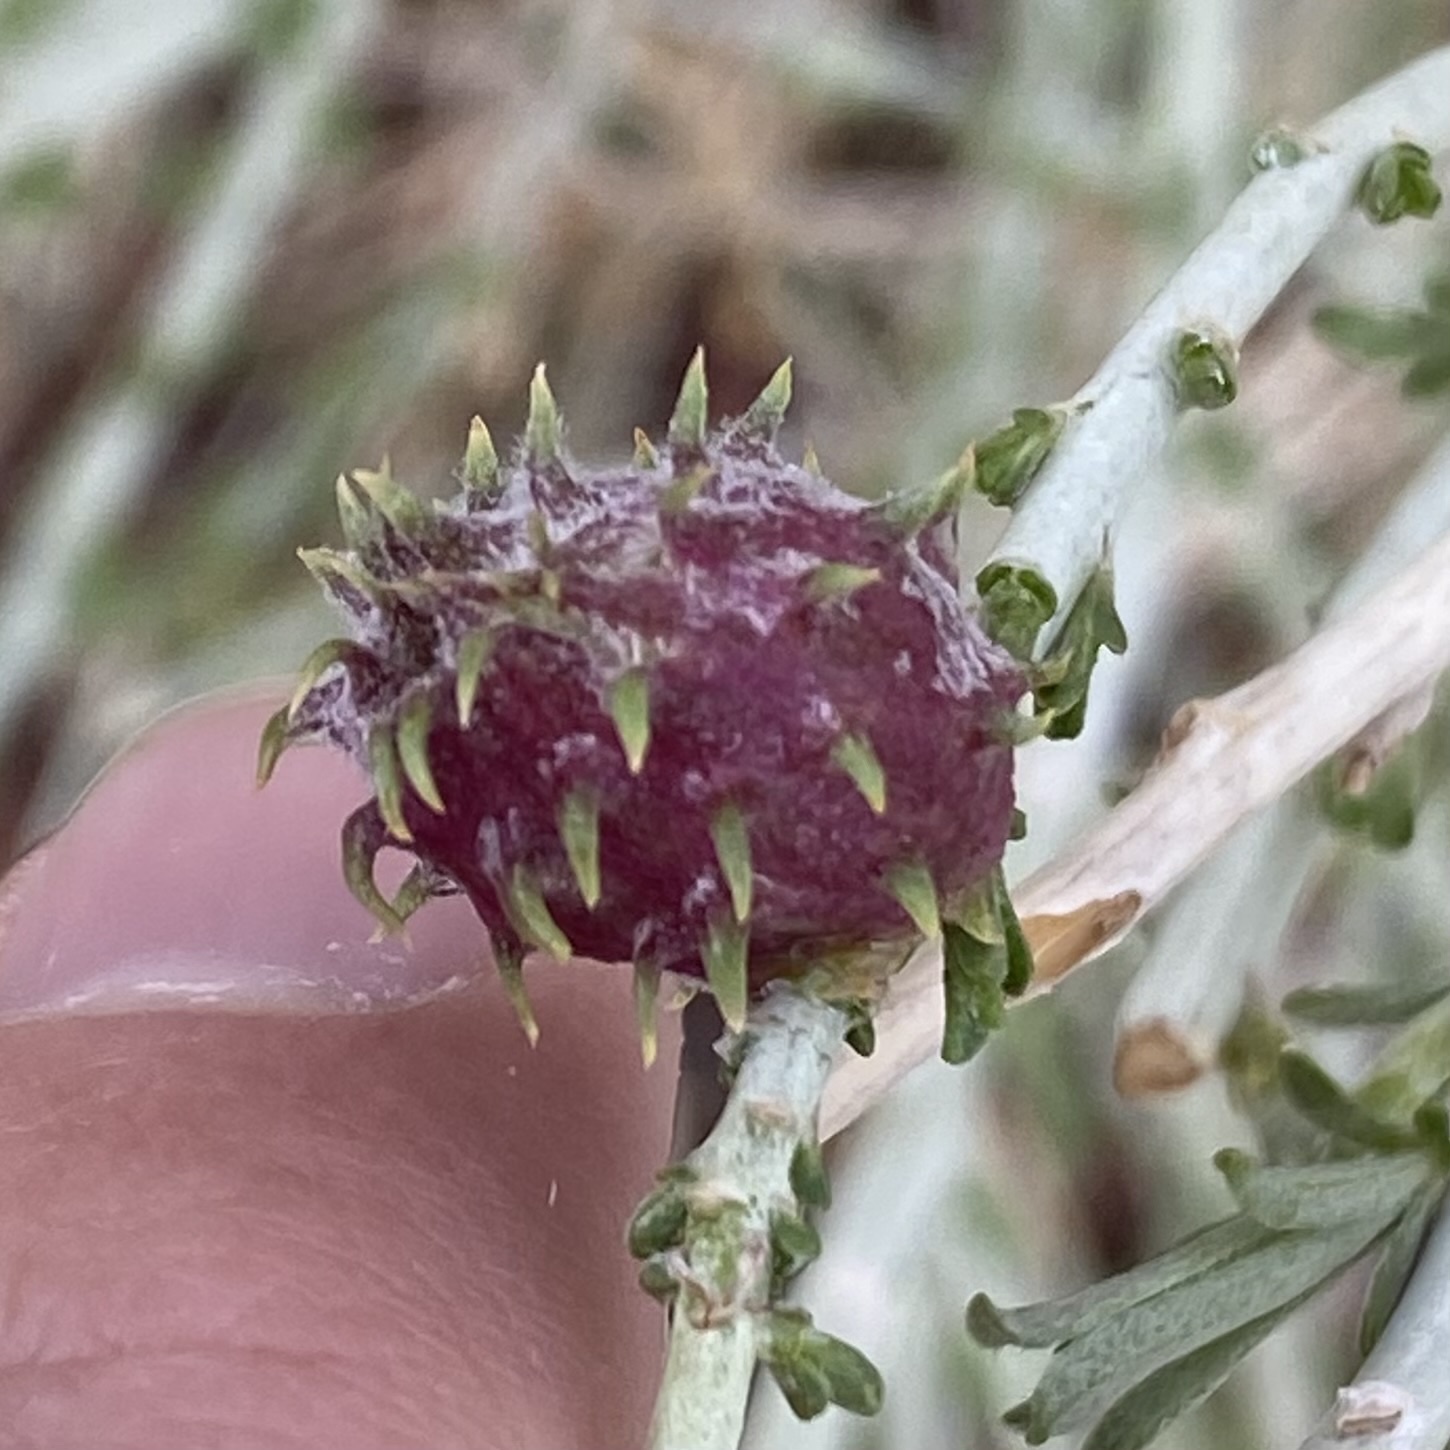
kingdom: Animalia
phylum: Arthropoda
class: Insecta
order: Diptera
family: Cecidomyiidae
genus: Rhopalomyia
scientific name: Rhopalomyia utahensis
